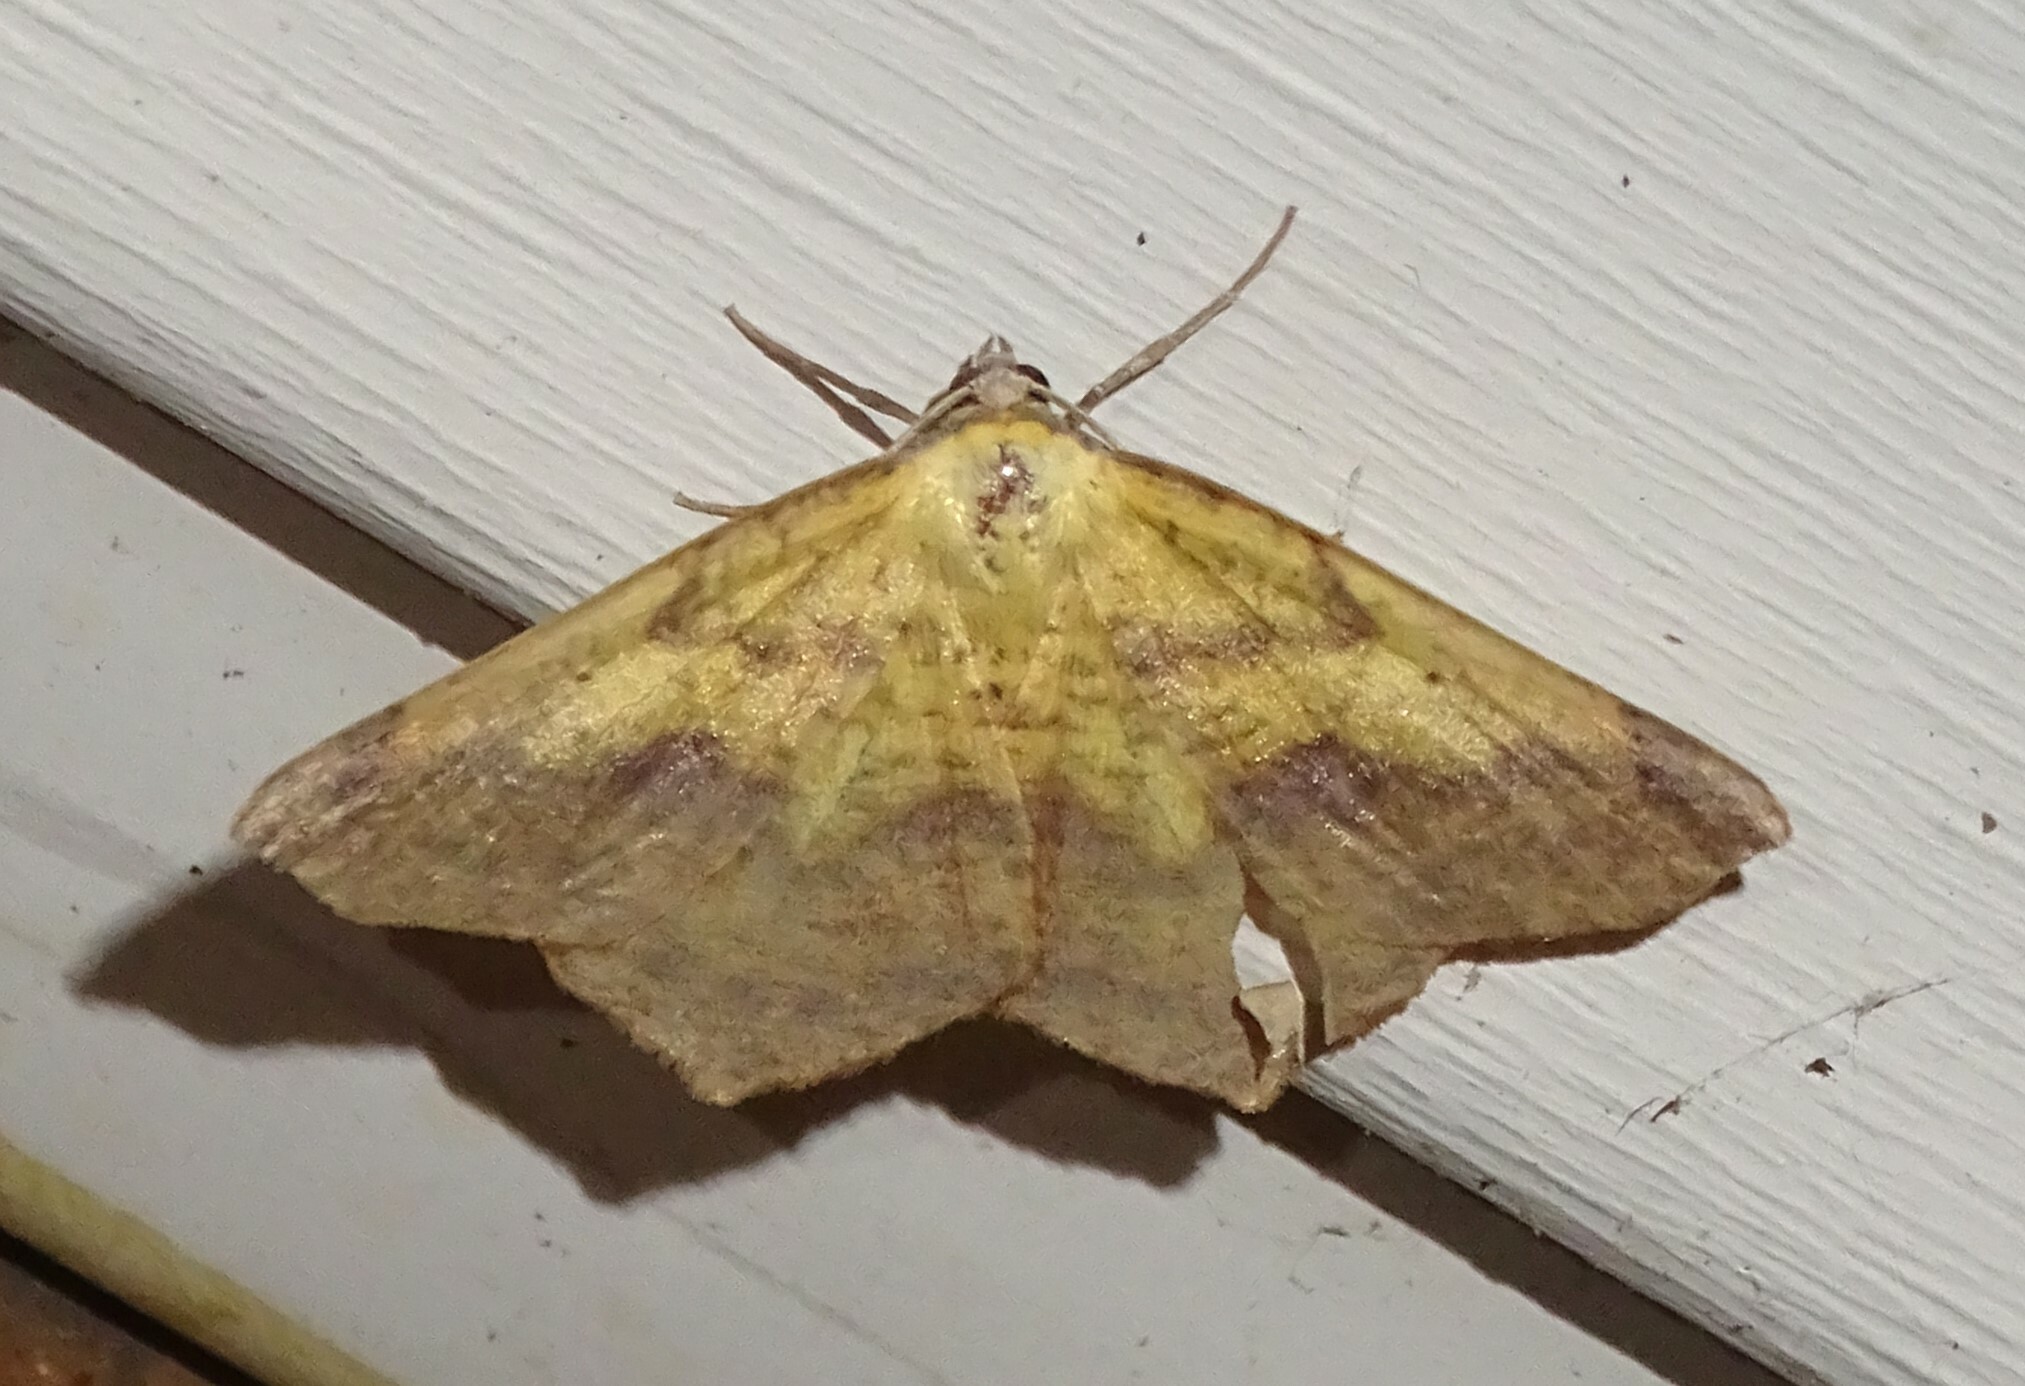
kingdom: Animalia
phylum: Arthropoda
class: Insecta
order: Lepidoptera
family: Geometridae
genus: Antepione
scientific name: Antepione thisoaria
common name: Variable antipione
